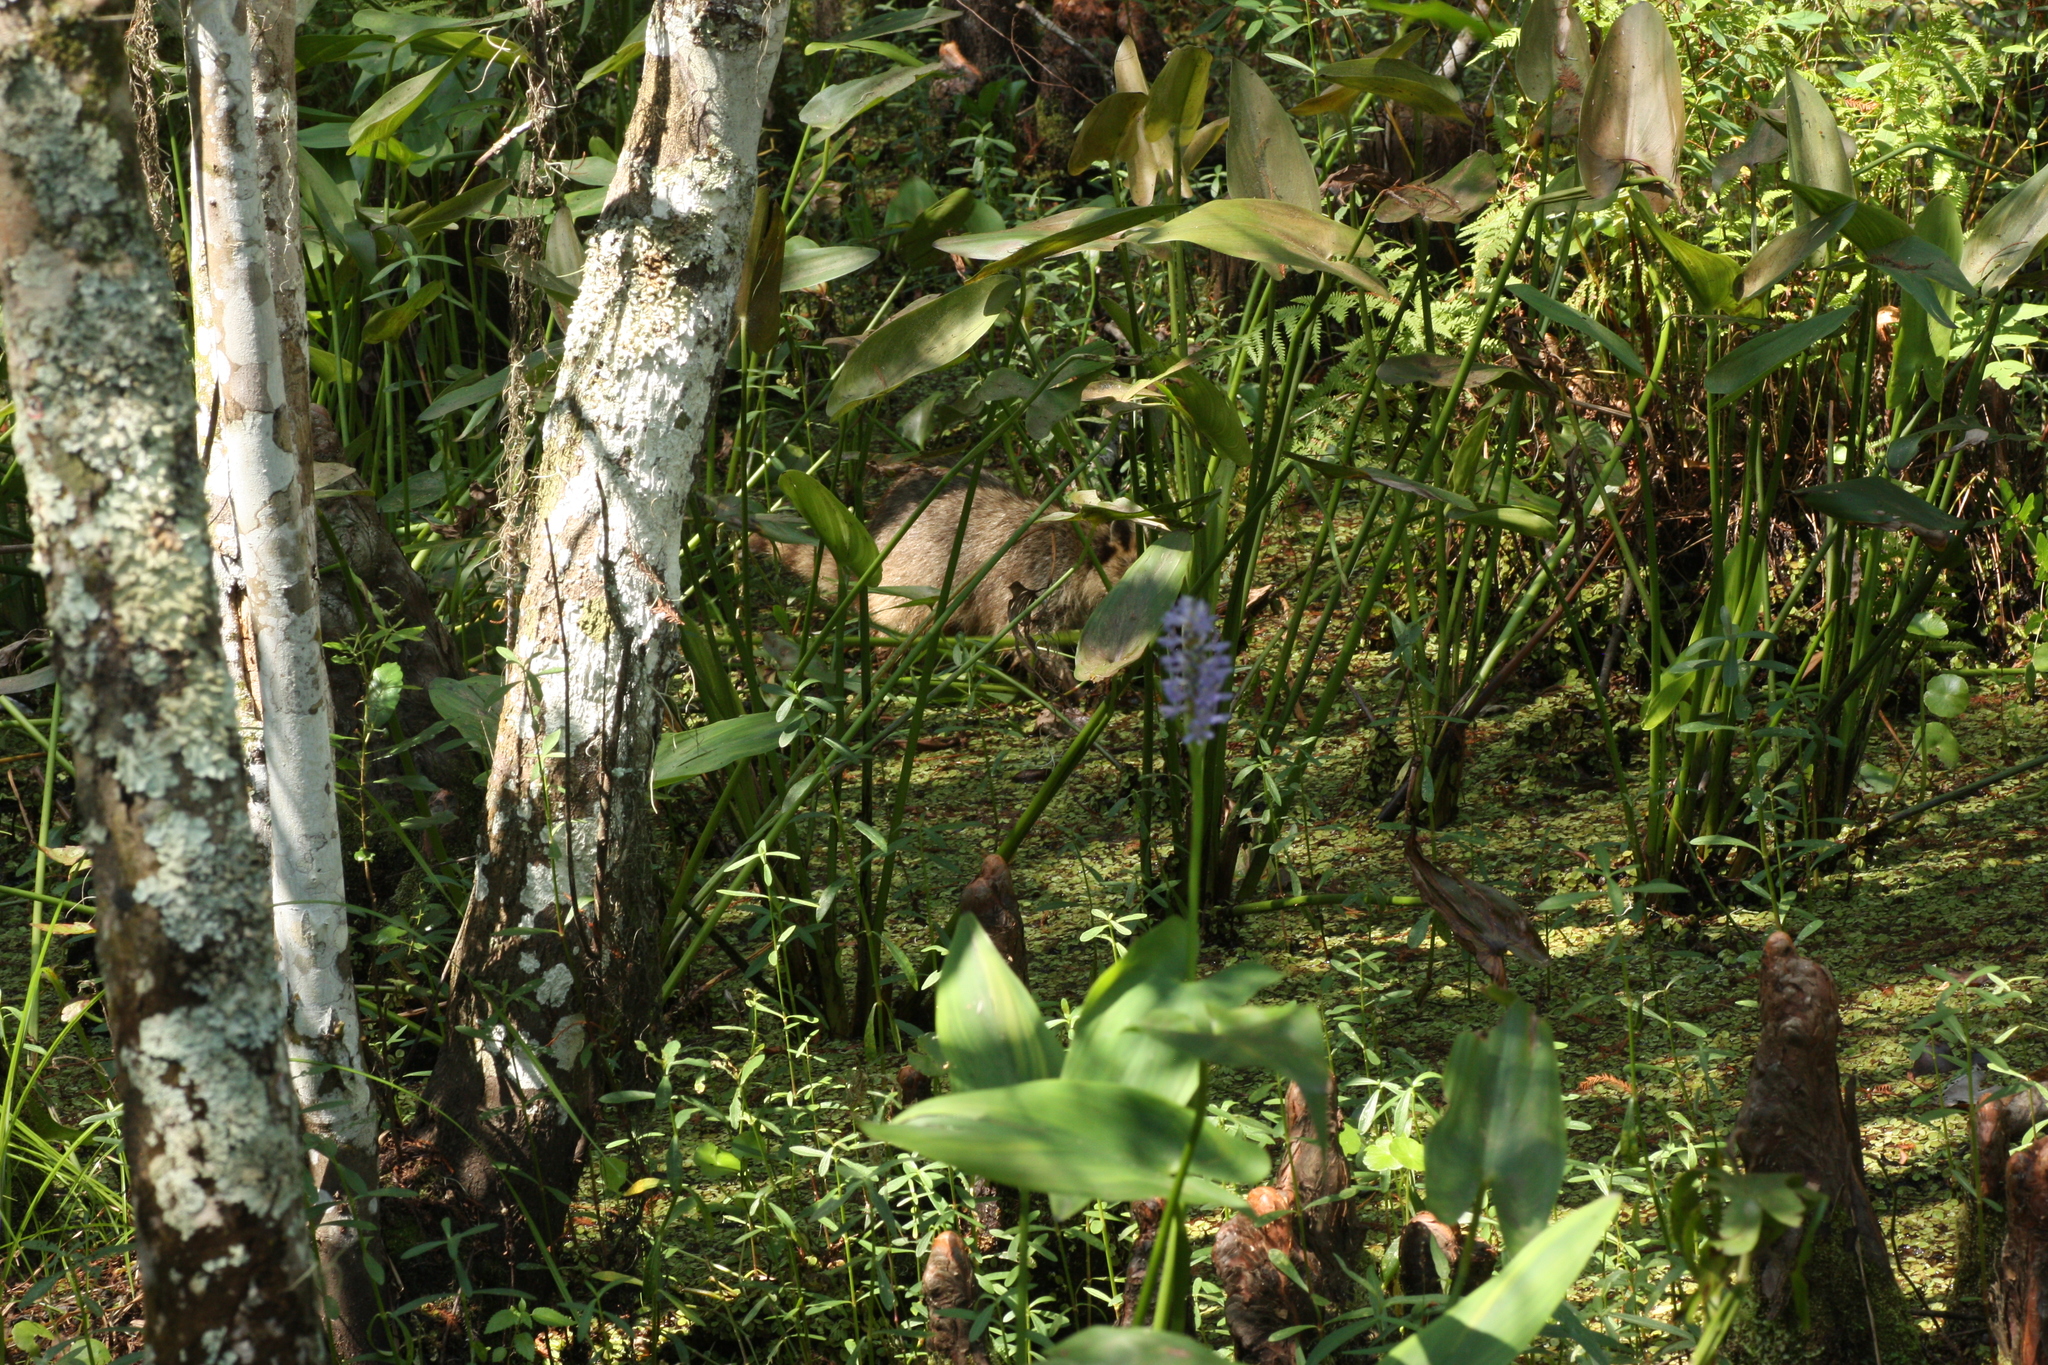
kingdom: Animalia
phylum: Chordata
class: Mammalia
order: Carnivora
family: Procyonidae
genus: Procyon
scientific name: Procyon lotor
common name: Raccoon
